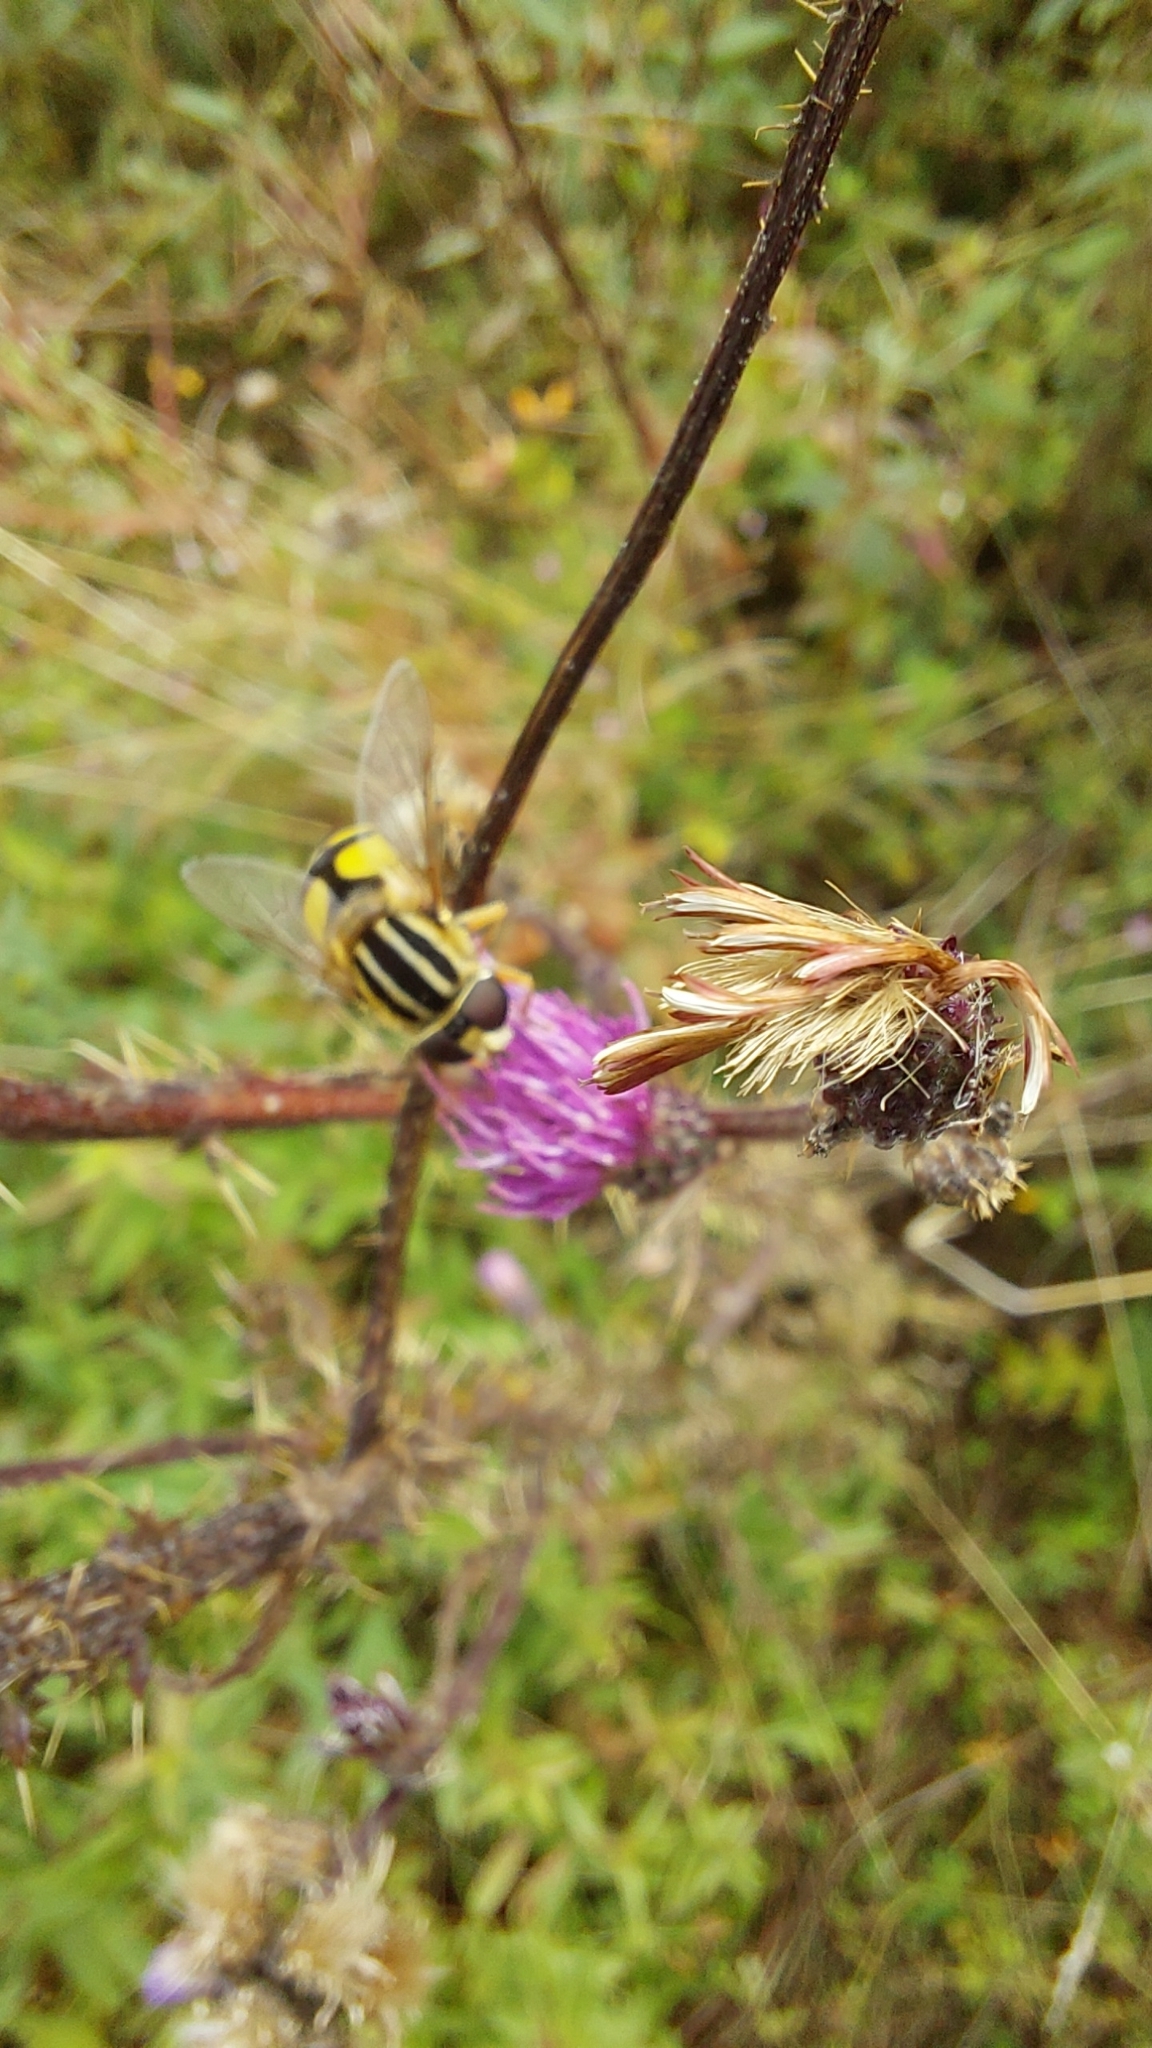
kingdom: Animalia
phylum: Arthropoda
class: Insecta
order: Diptera
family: Syrphidae
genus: Helophilus
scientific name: Helophilus trivittatus
